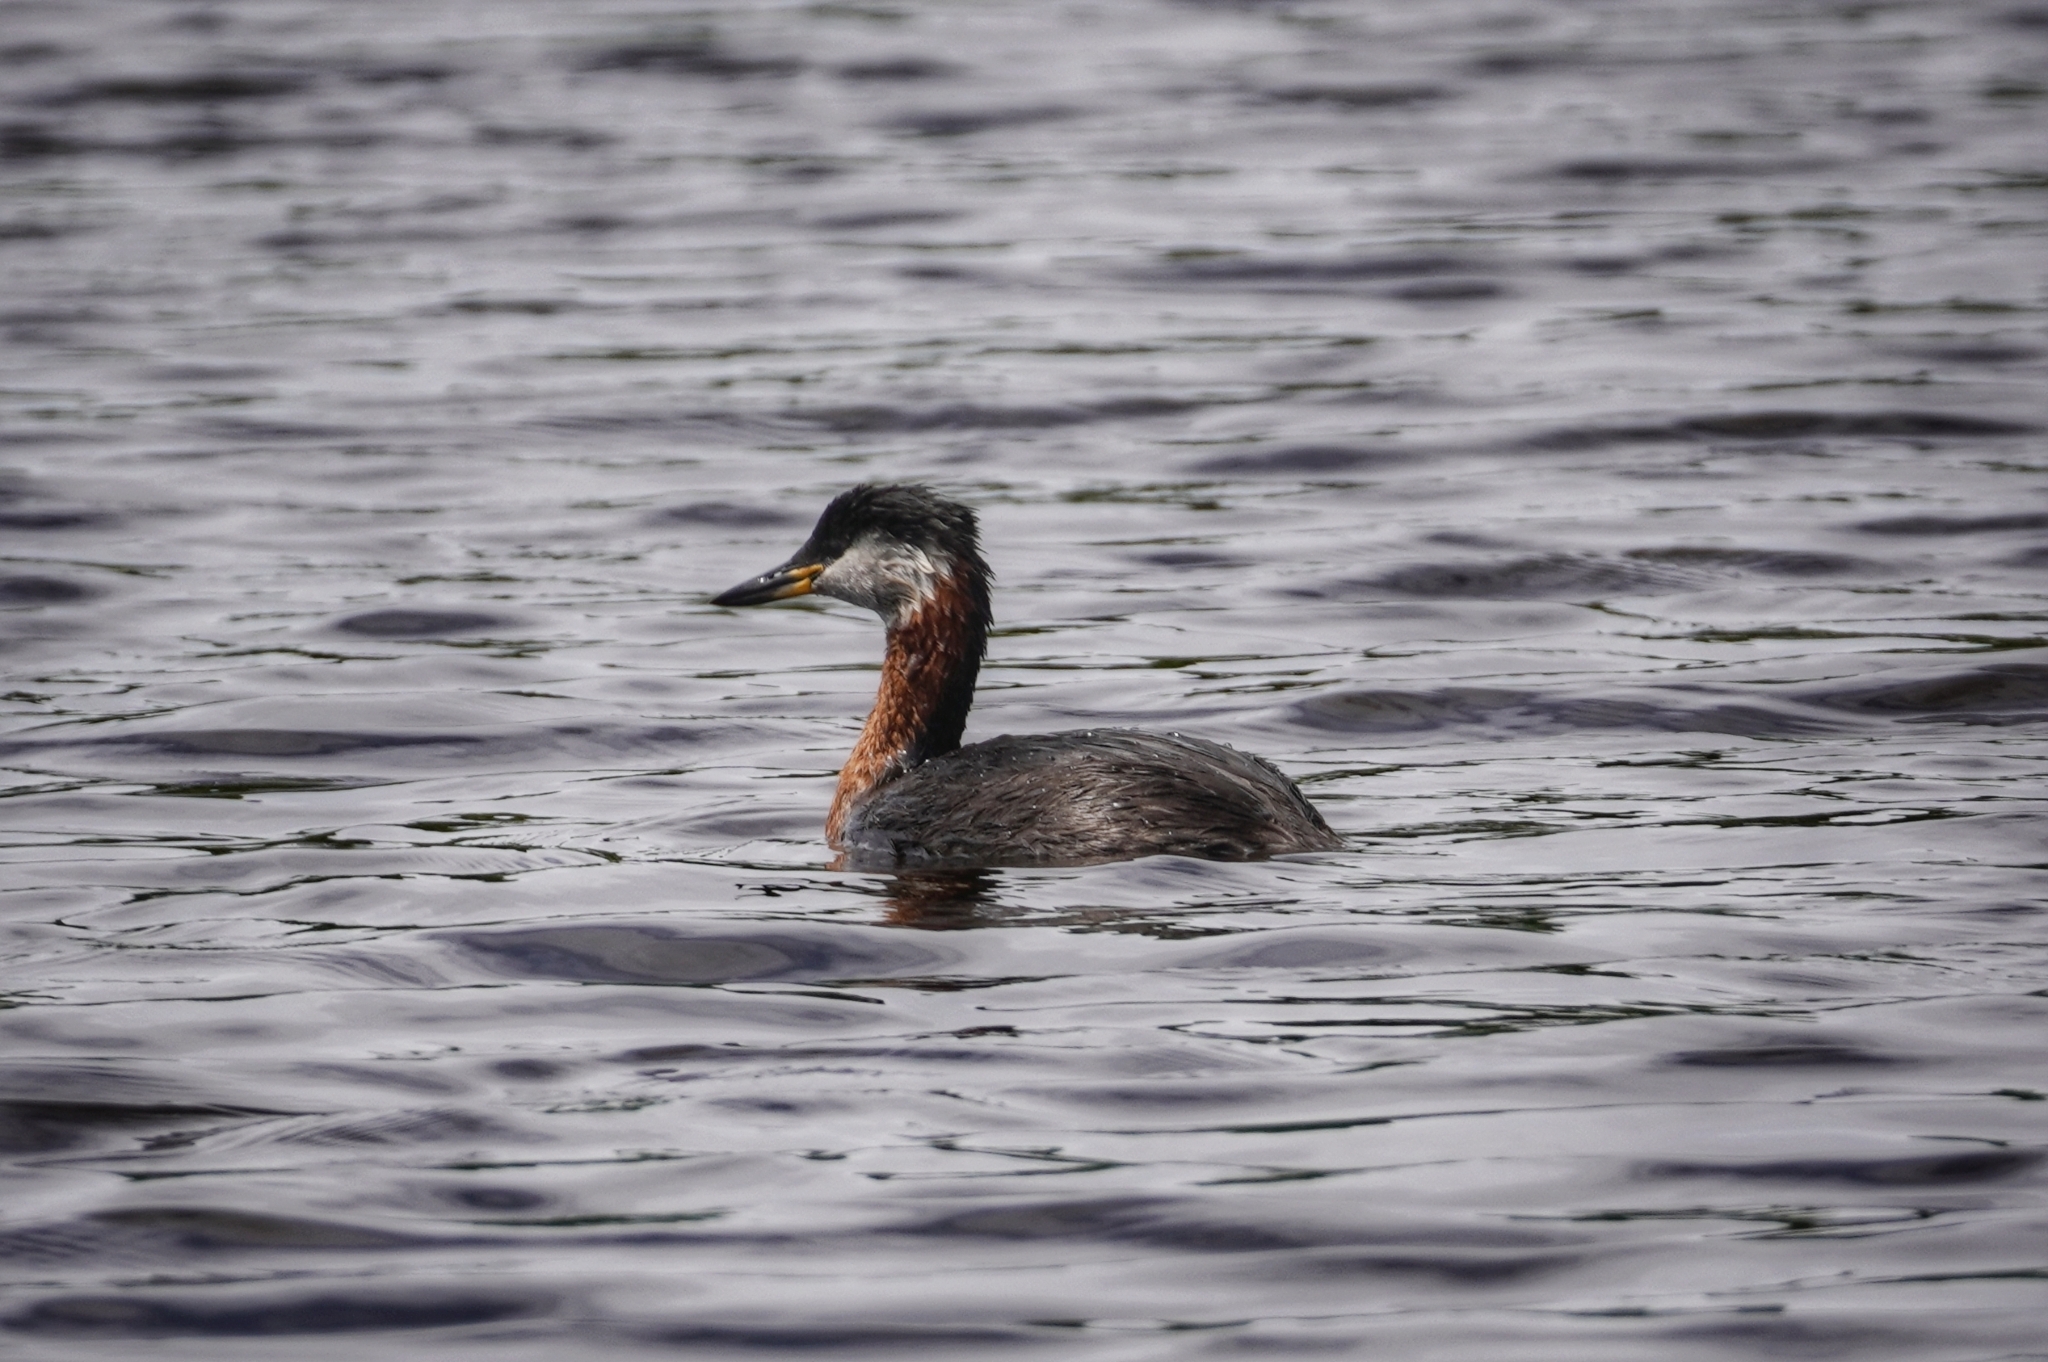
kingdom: Animalia
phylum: Chordata
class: Aves
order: Podicipediformes
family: Podicipedidae
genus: Podiceps
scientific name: Podiceps grisegena
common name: Red-necked grebe
